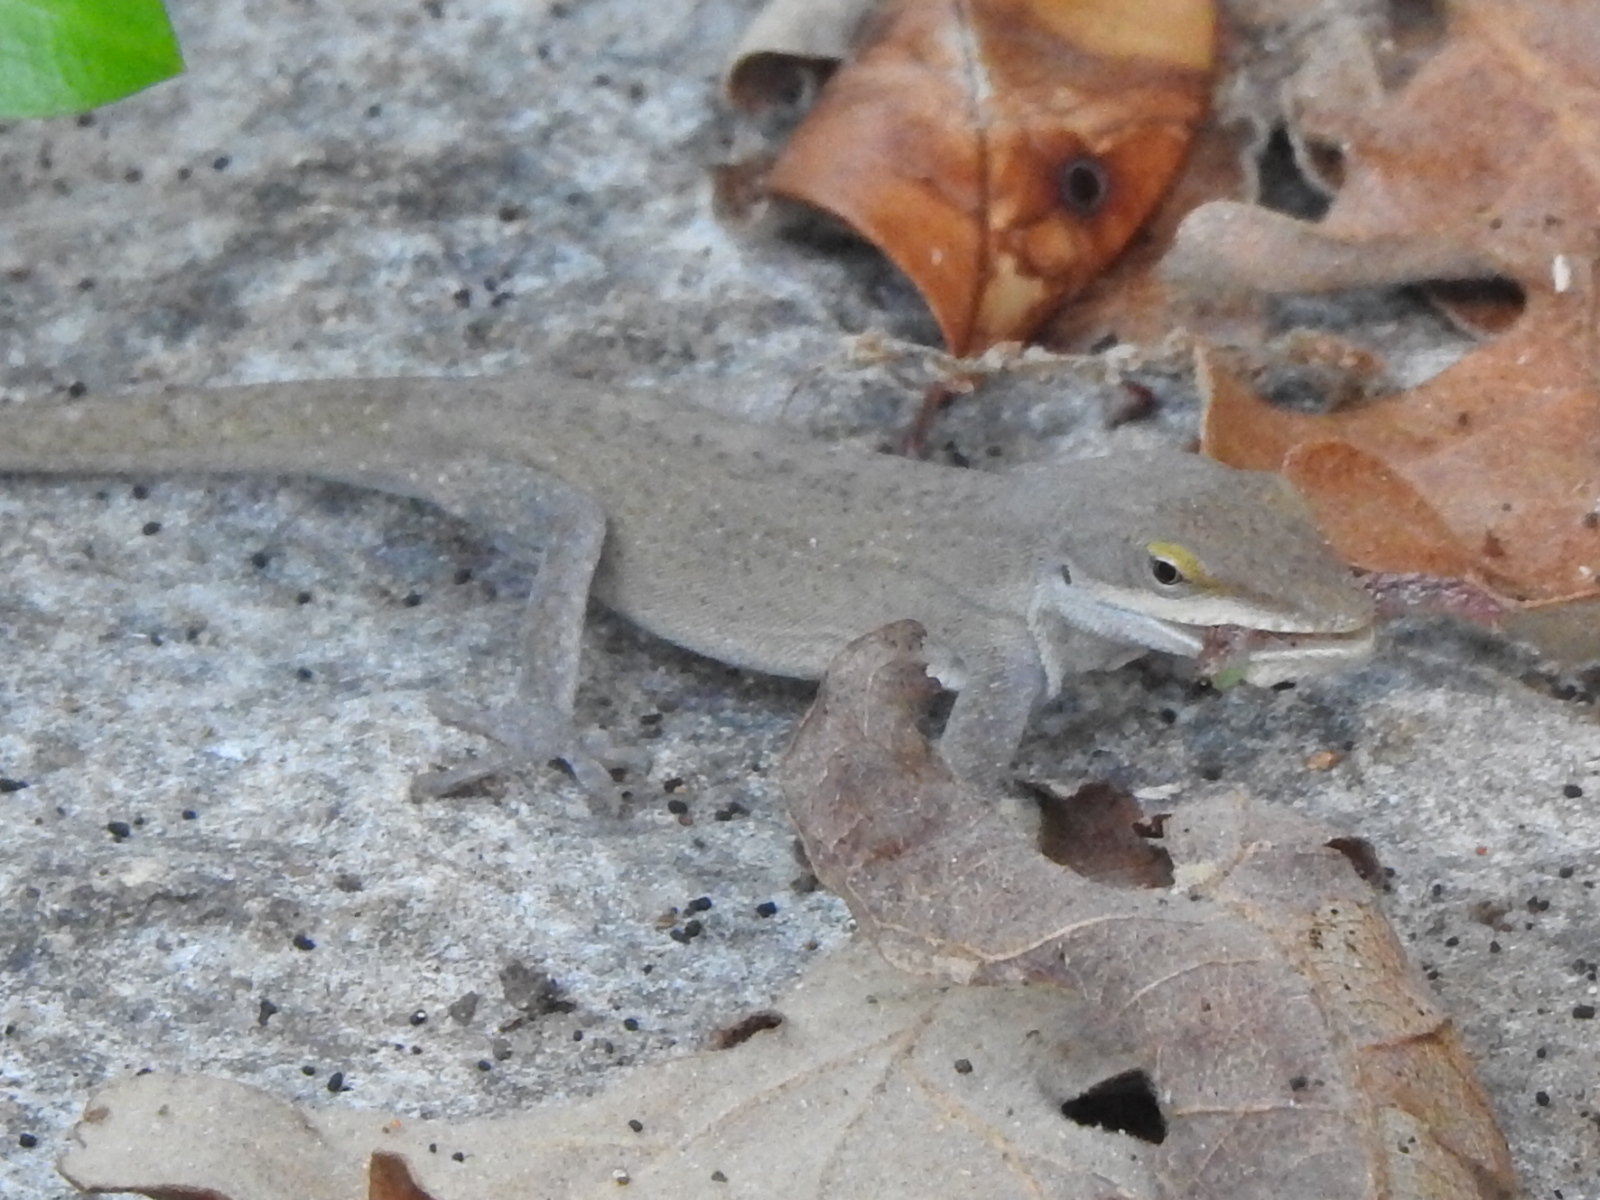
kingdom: Animalia
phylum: Chordata
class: Squamata
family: Dactyloidae
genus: Anolis
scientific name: Anolis carolinensis
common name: Green anole
